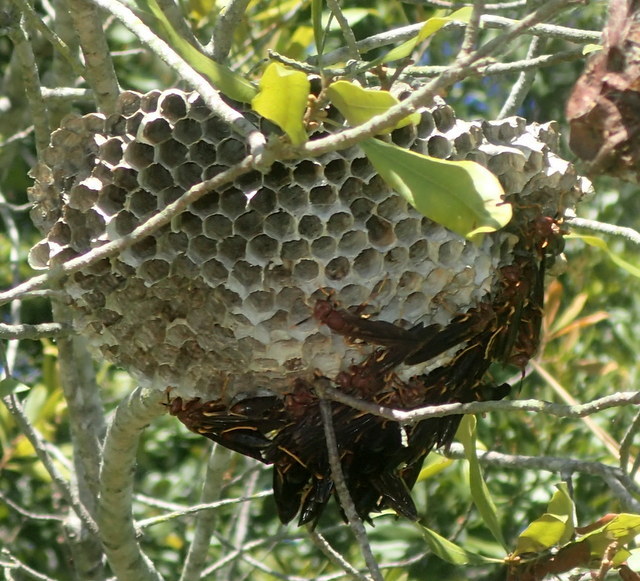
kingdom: Animalia
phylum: Arthropoda
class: Insecta
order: Hymenoptera
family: Eumenidae
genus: Polistes
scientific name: Polistes annularis
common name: Ringed paper wasp
